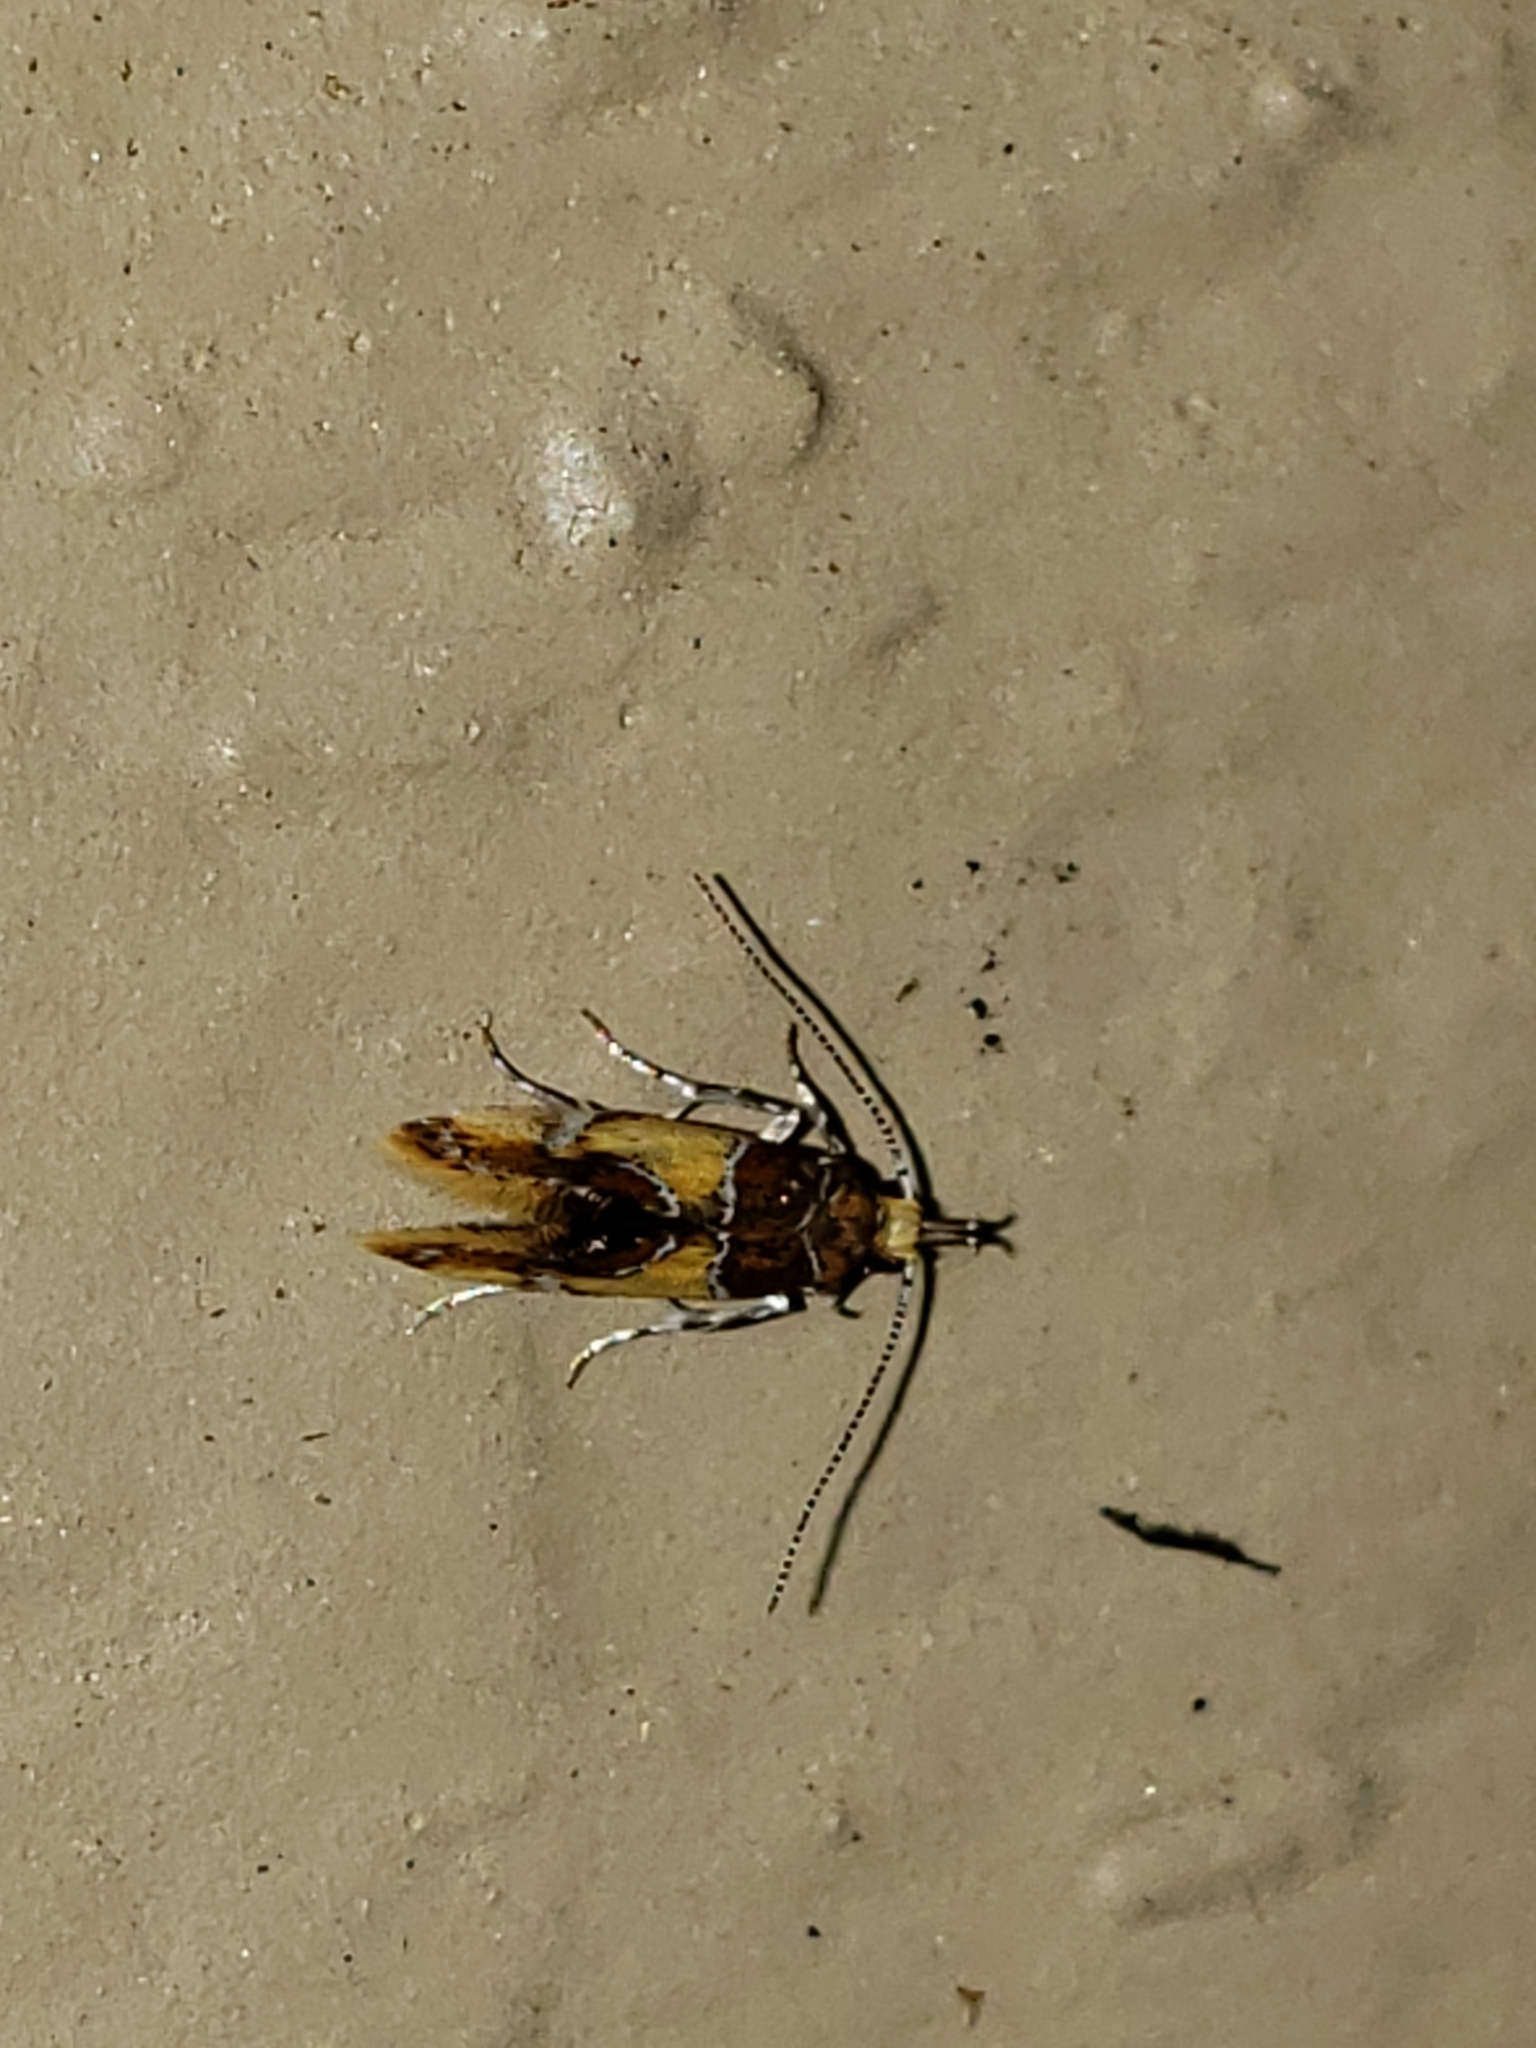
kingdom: Animalia
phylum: Arthropoda
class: Insecta
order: Lepidoptera
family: Oecophoridae
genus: Callima
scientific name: Callima argenticinctella
